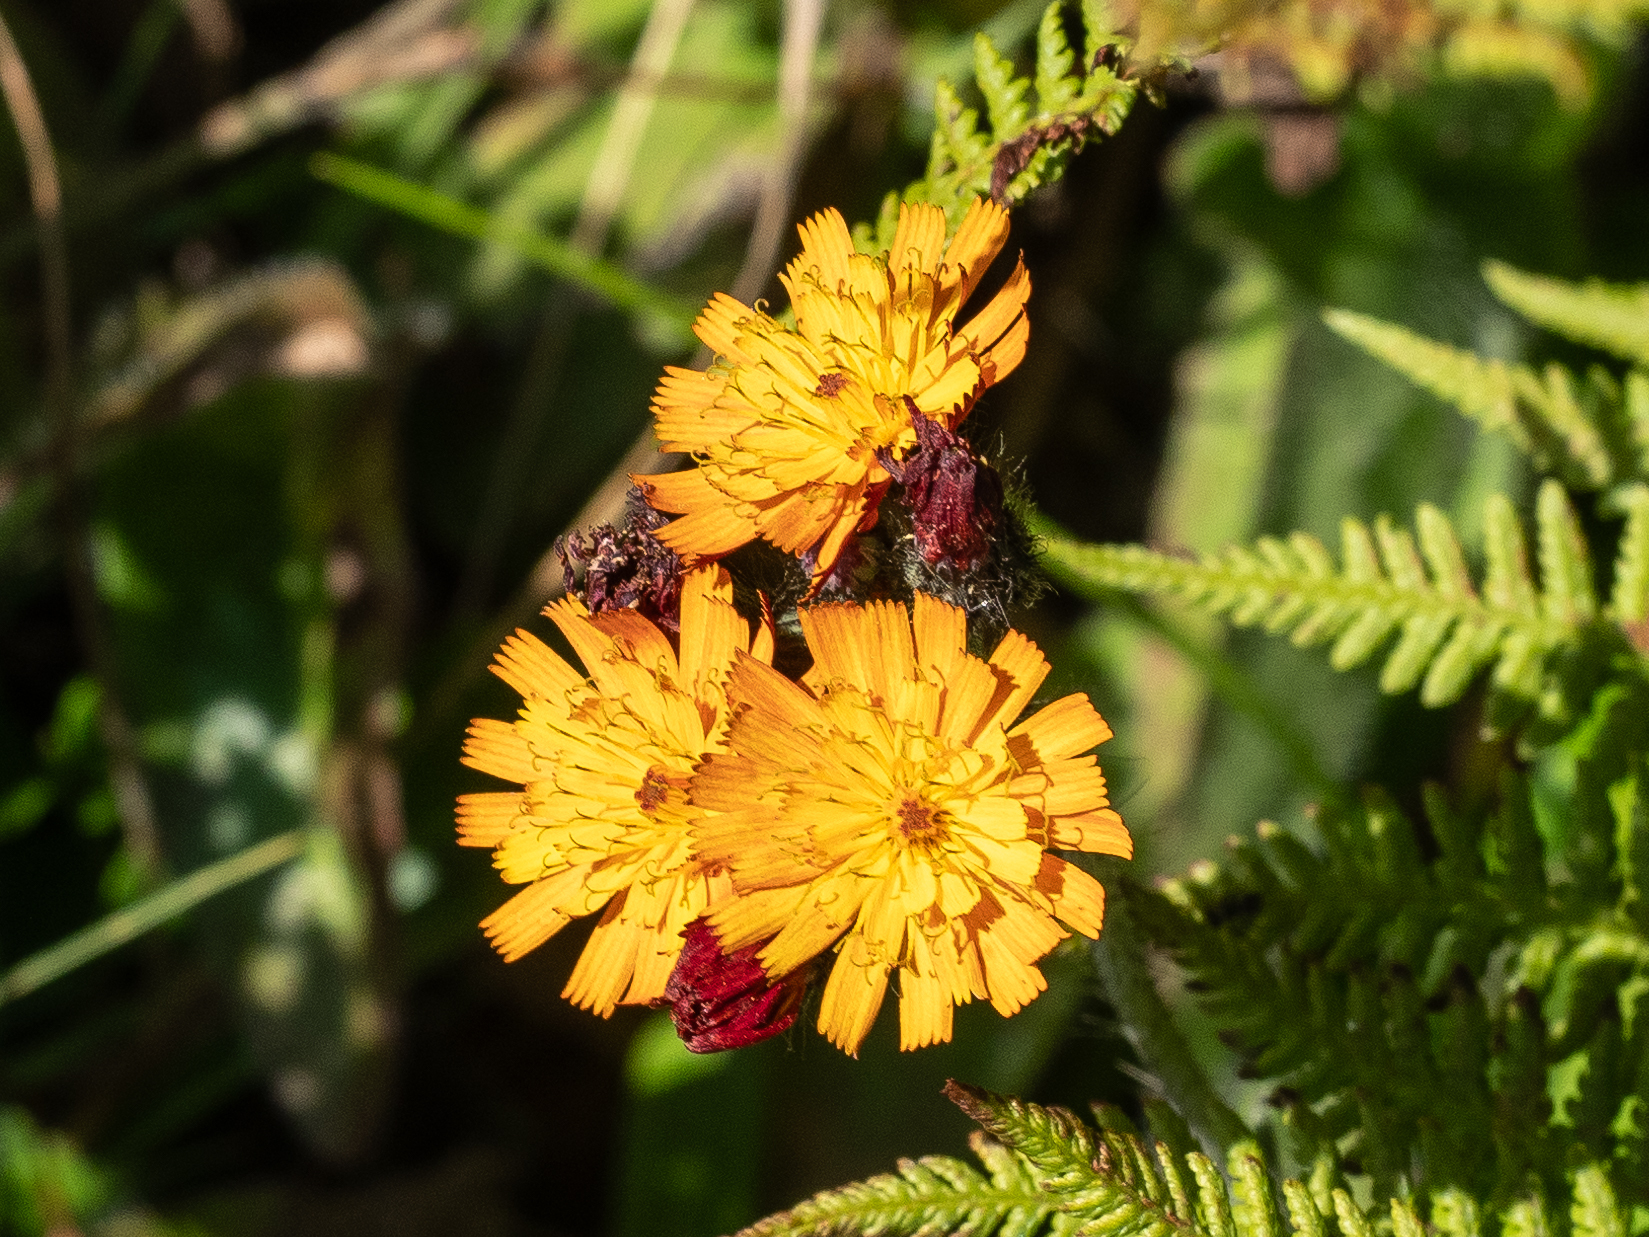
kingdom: Plantae
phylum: Tracheophyta
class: Magnoliopsida
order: Asterales
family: Asteraceae
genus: Pilosella
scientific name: Pilosella aurantiaca
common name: Fox-and-cubs
